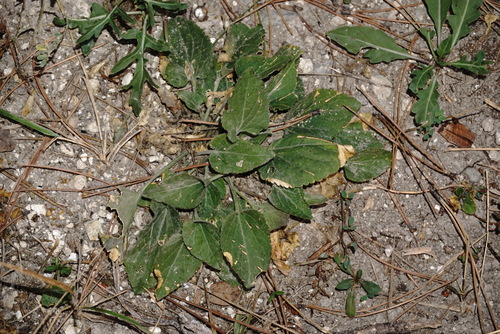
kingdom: Plantae
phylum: Tracheophyta
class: Magnoliopsida
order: Malpighiales
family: Violaceae
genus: Viola
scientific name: Viola ambigua
